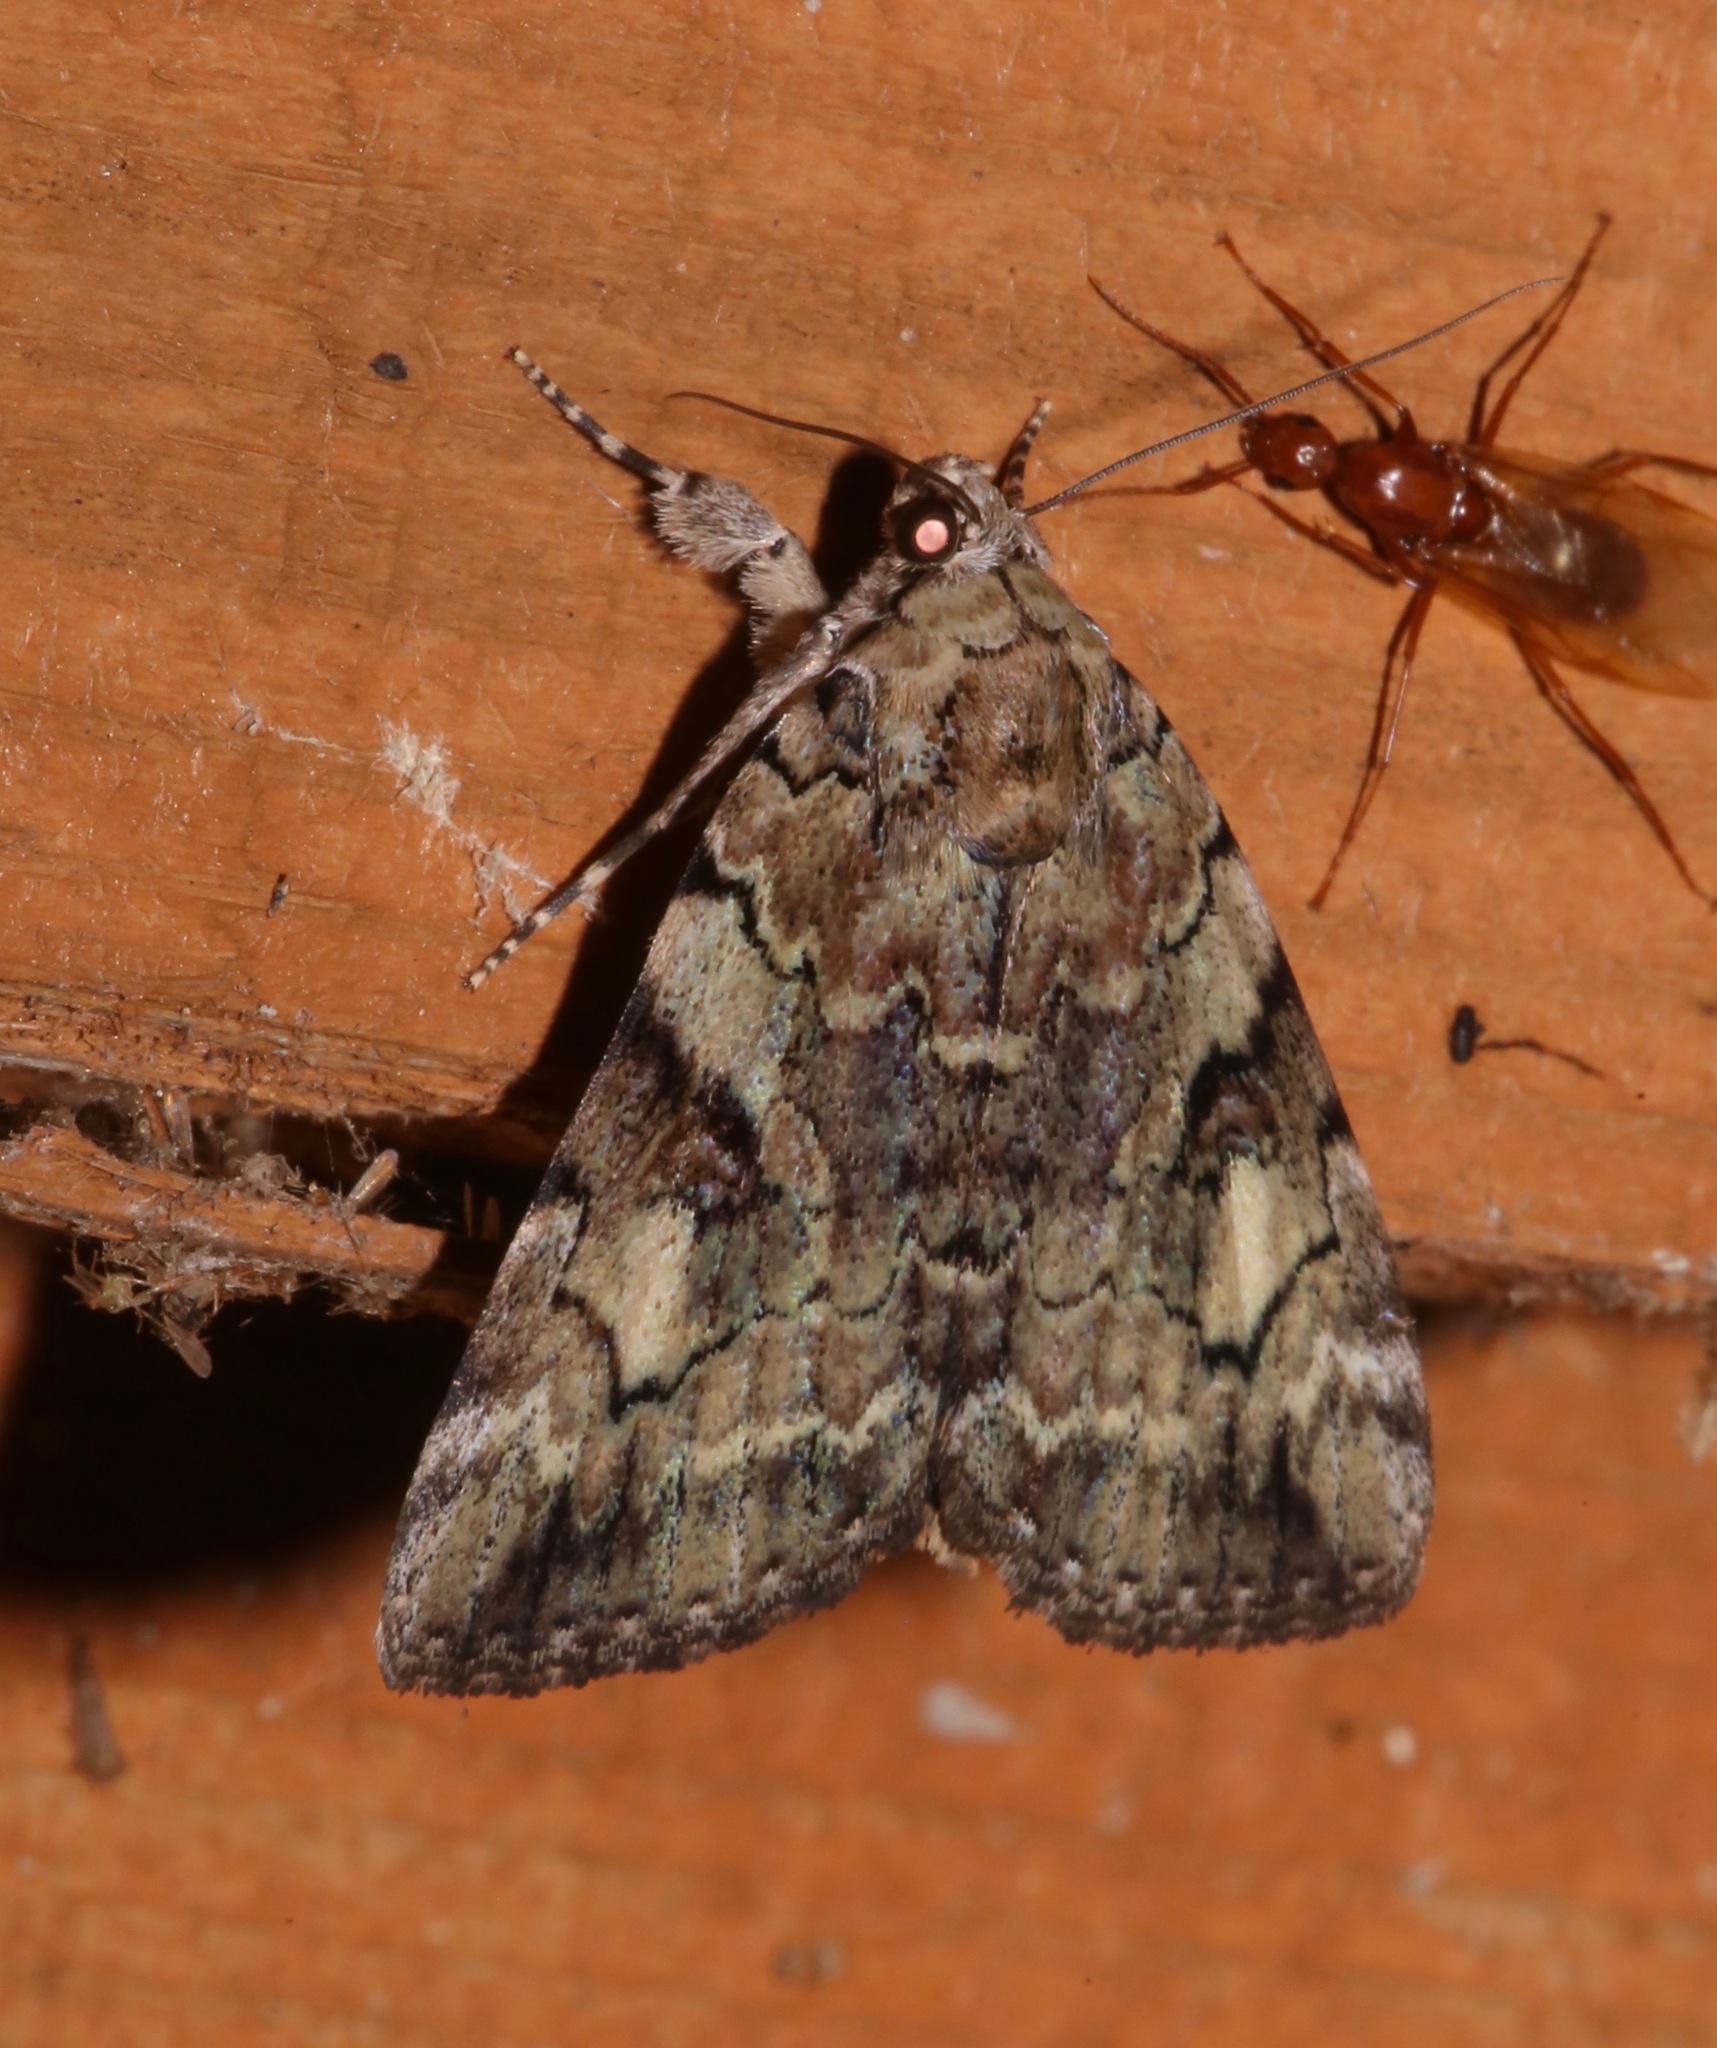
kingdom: Animalia
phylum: Arthropoda
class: Insecta
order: Lepidoptera
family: Erebidae
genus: Catocala
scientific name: Catocala micronympha
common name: Little nymph underwing
